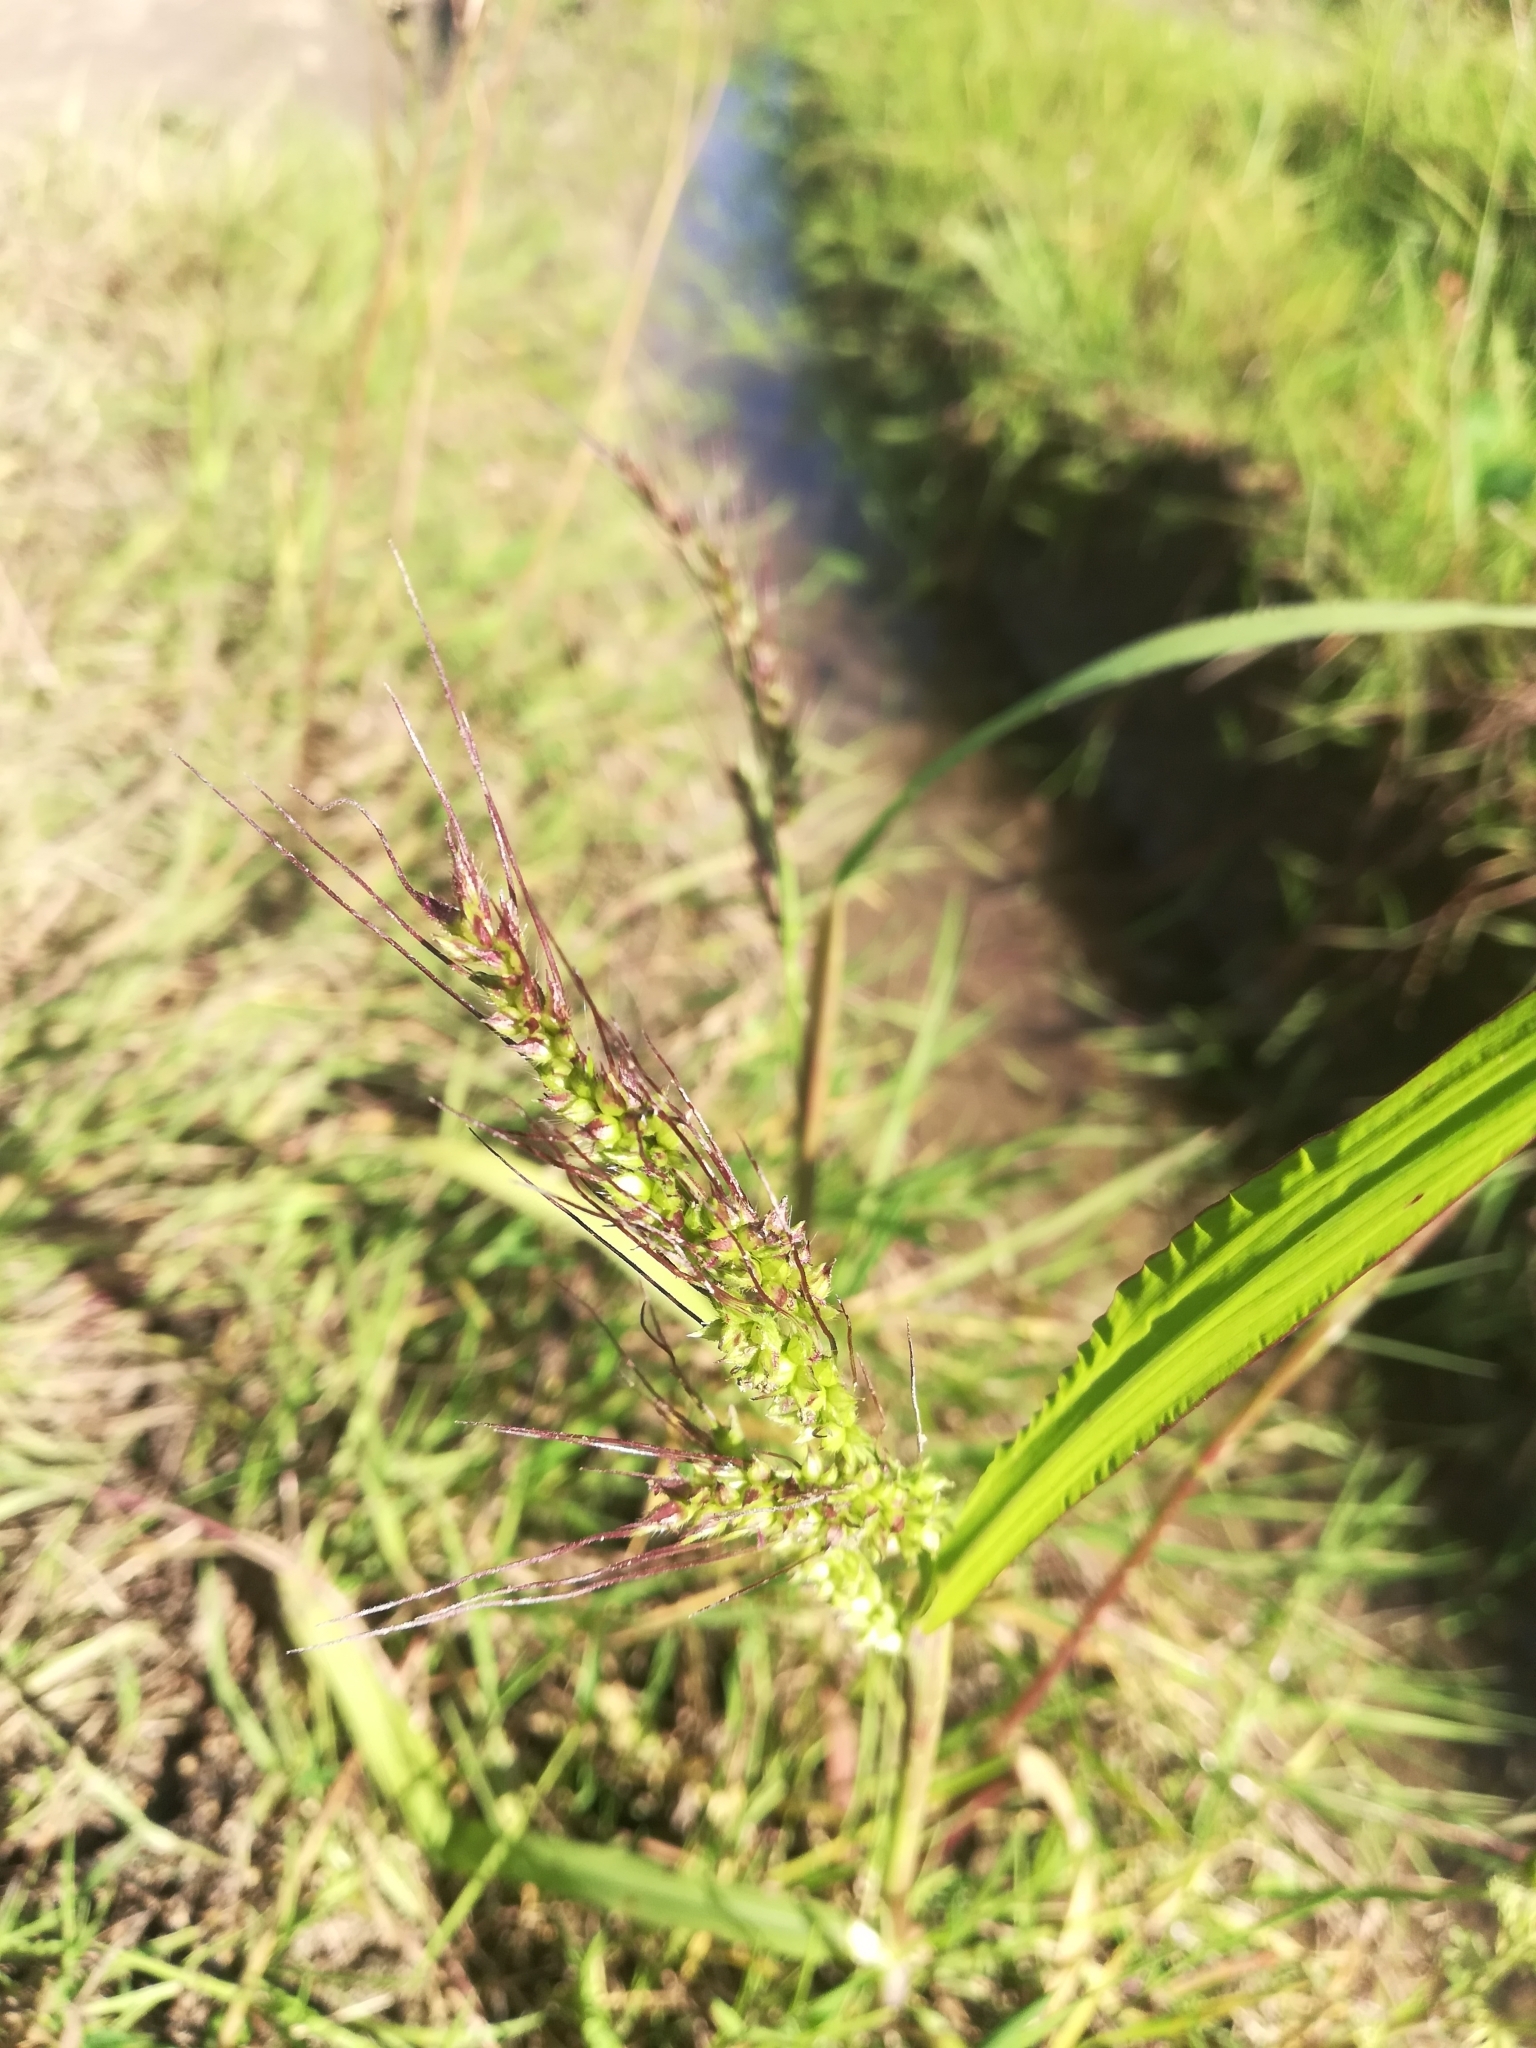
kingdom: Plantae
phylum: Tracheophyta
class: Liliopsida
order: Poales
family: Poaceae
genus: Echinochloa
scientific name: Echinochloa crus-galli
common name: Cockspur
